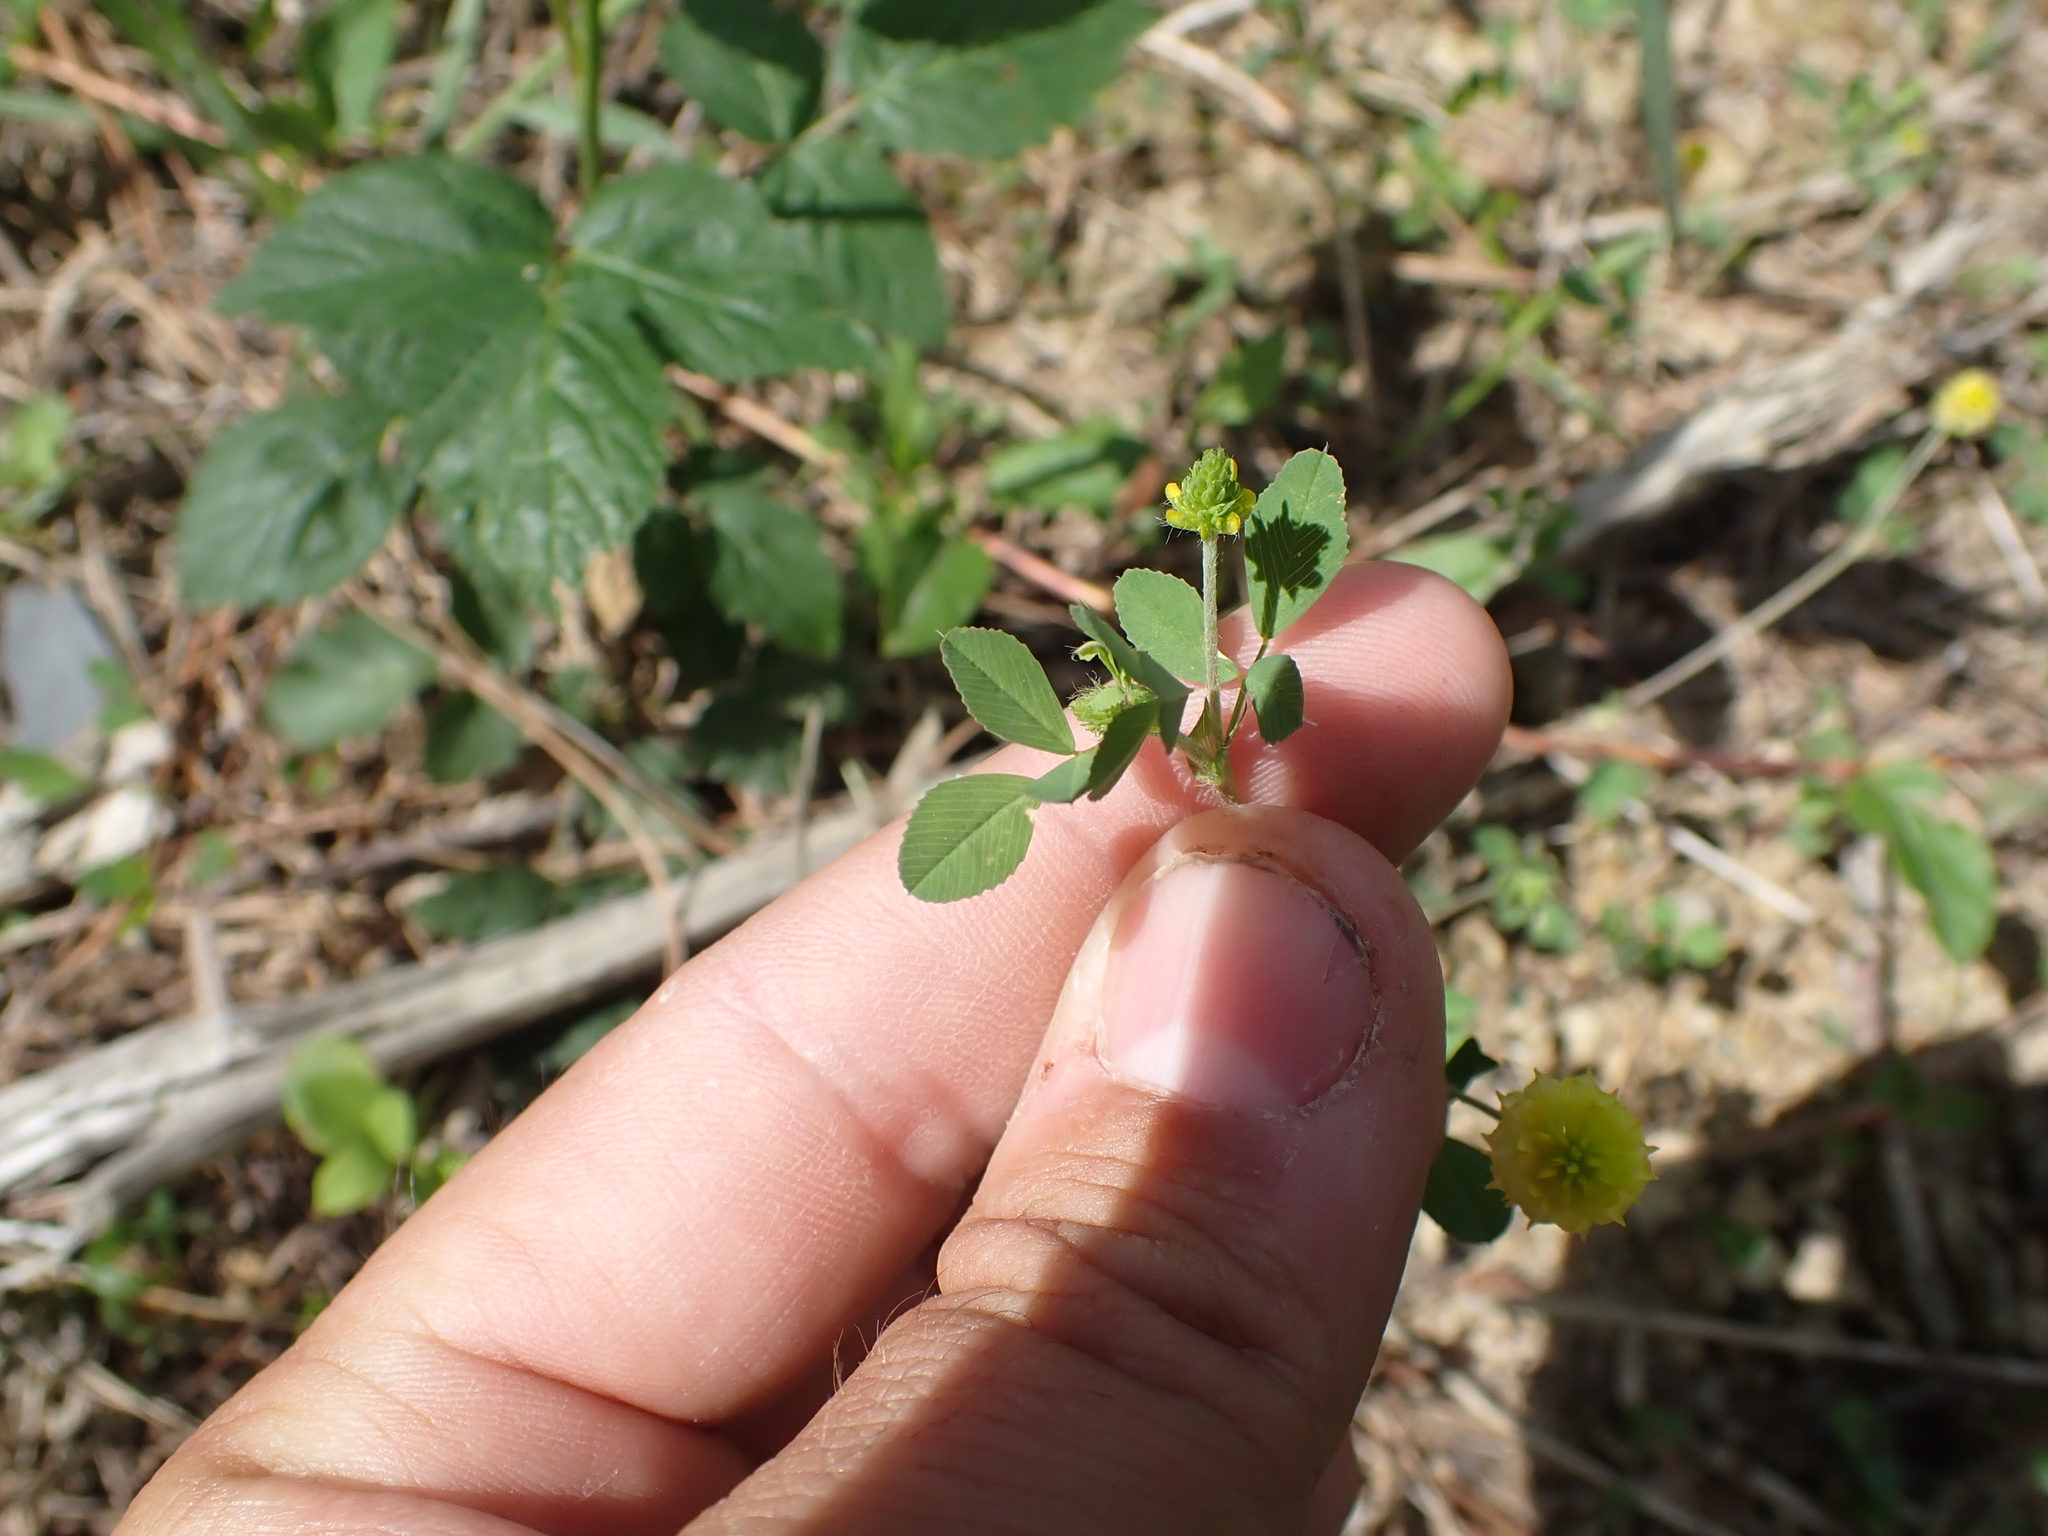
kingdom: Plantae
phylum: Tracheophyta
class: Magnoliopsida
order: Fabales
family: Fabaceae
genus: Trifolium
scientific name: Trifolium campestre
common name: Field clover
